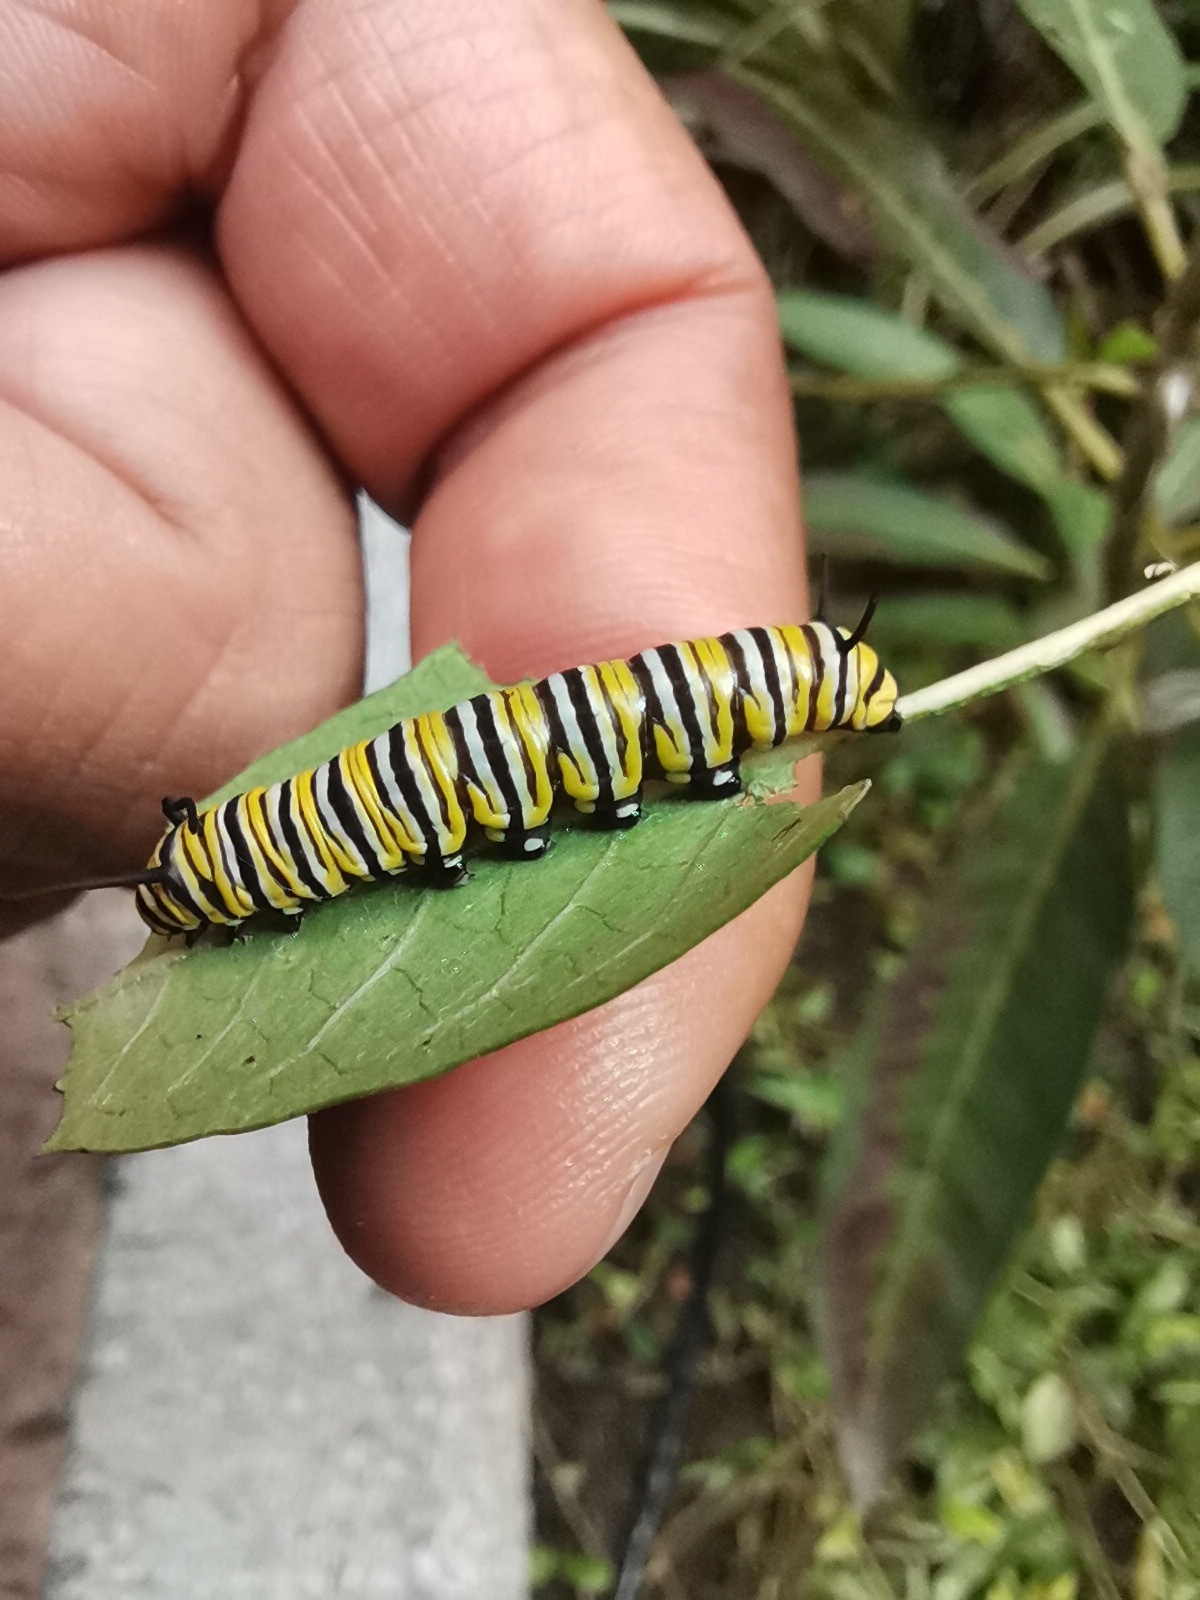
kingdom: Animalia
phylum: Arthropoda
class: Insecta
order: Lepidoptera
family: Nymphalidae
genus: Danaus
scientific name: Danaus plexippus
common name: Monarch
